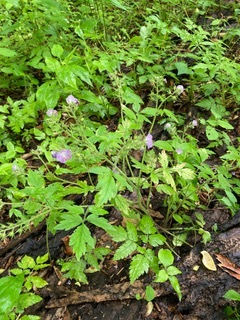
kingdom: Plantae
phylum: Tracheophyta
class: Magnoliopsida
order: Boraginales
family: Hydrophyllaceae
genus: Phacelia
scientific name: Phacelia bipinnatifida
